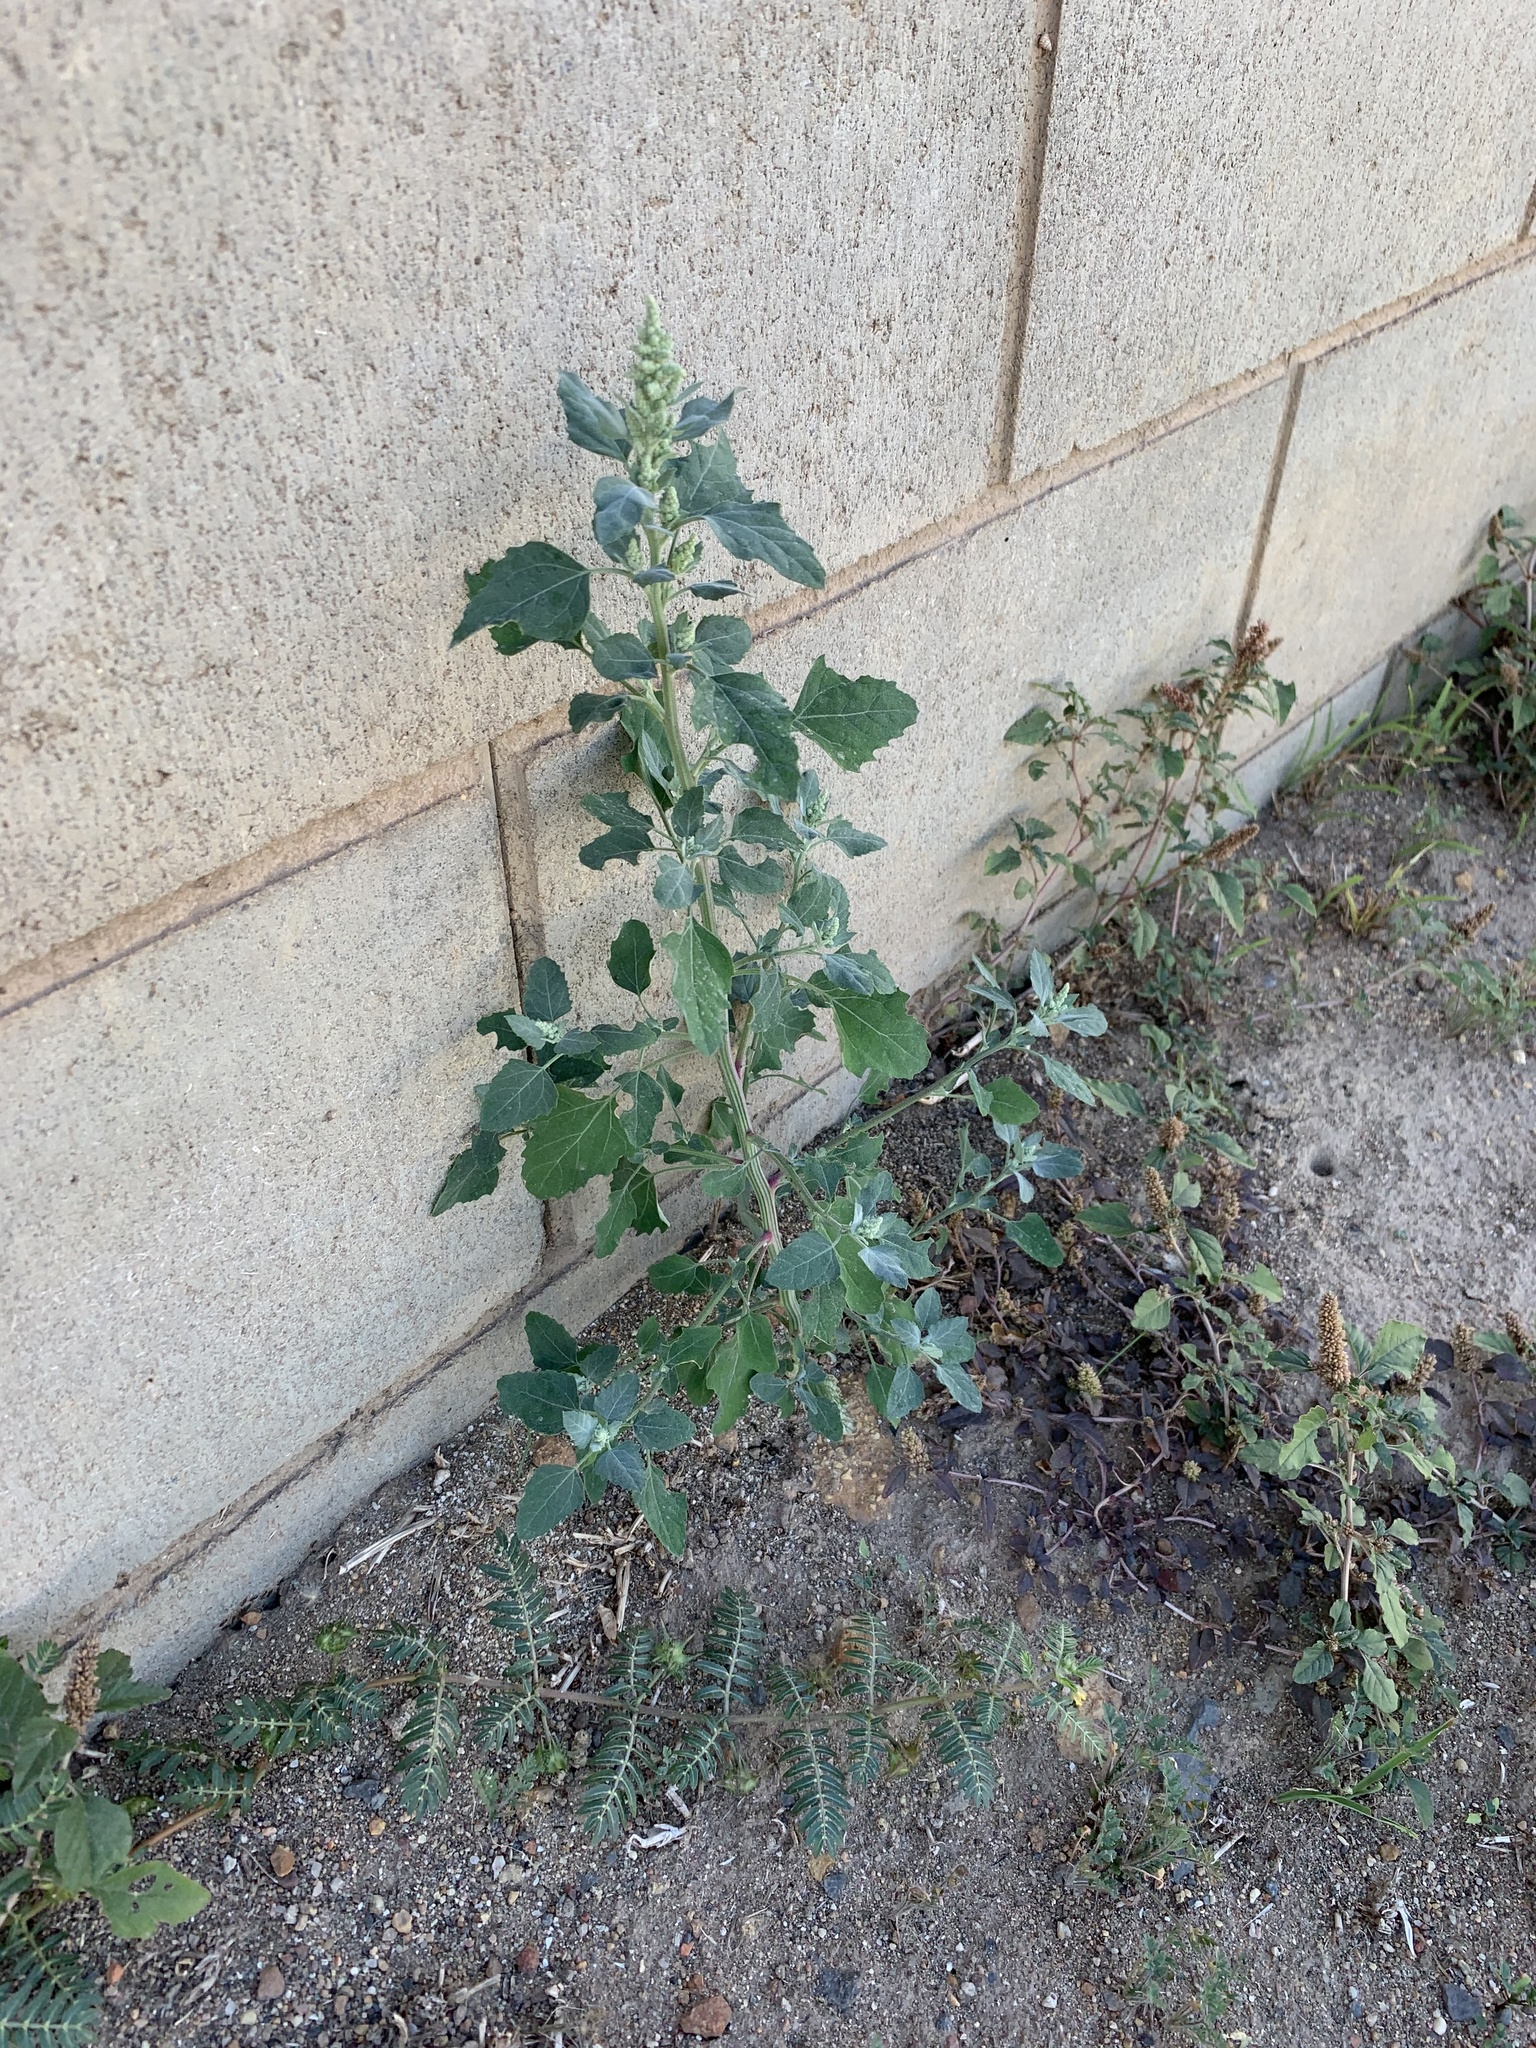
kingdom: Plantae
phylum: Tracheophyta
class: Magnoliopsida
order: Caryophyllales
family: Amaranthaceae
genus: Chenopodium
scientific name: Chenopodium album
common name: Fat-hen
